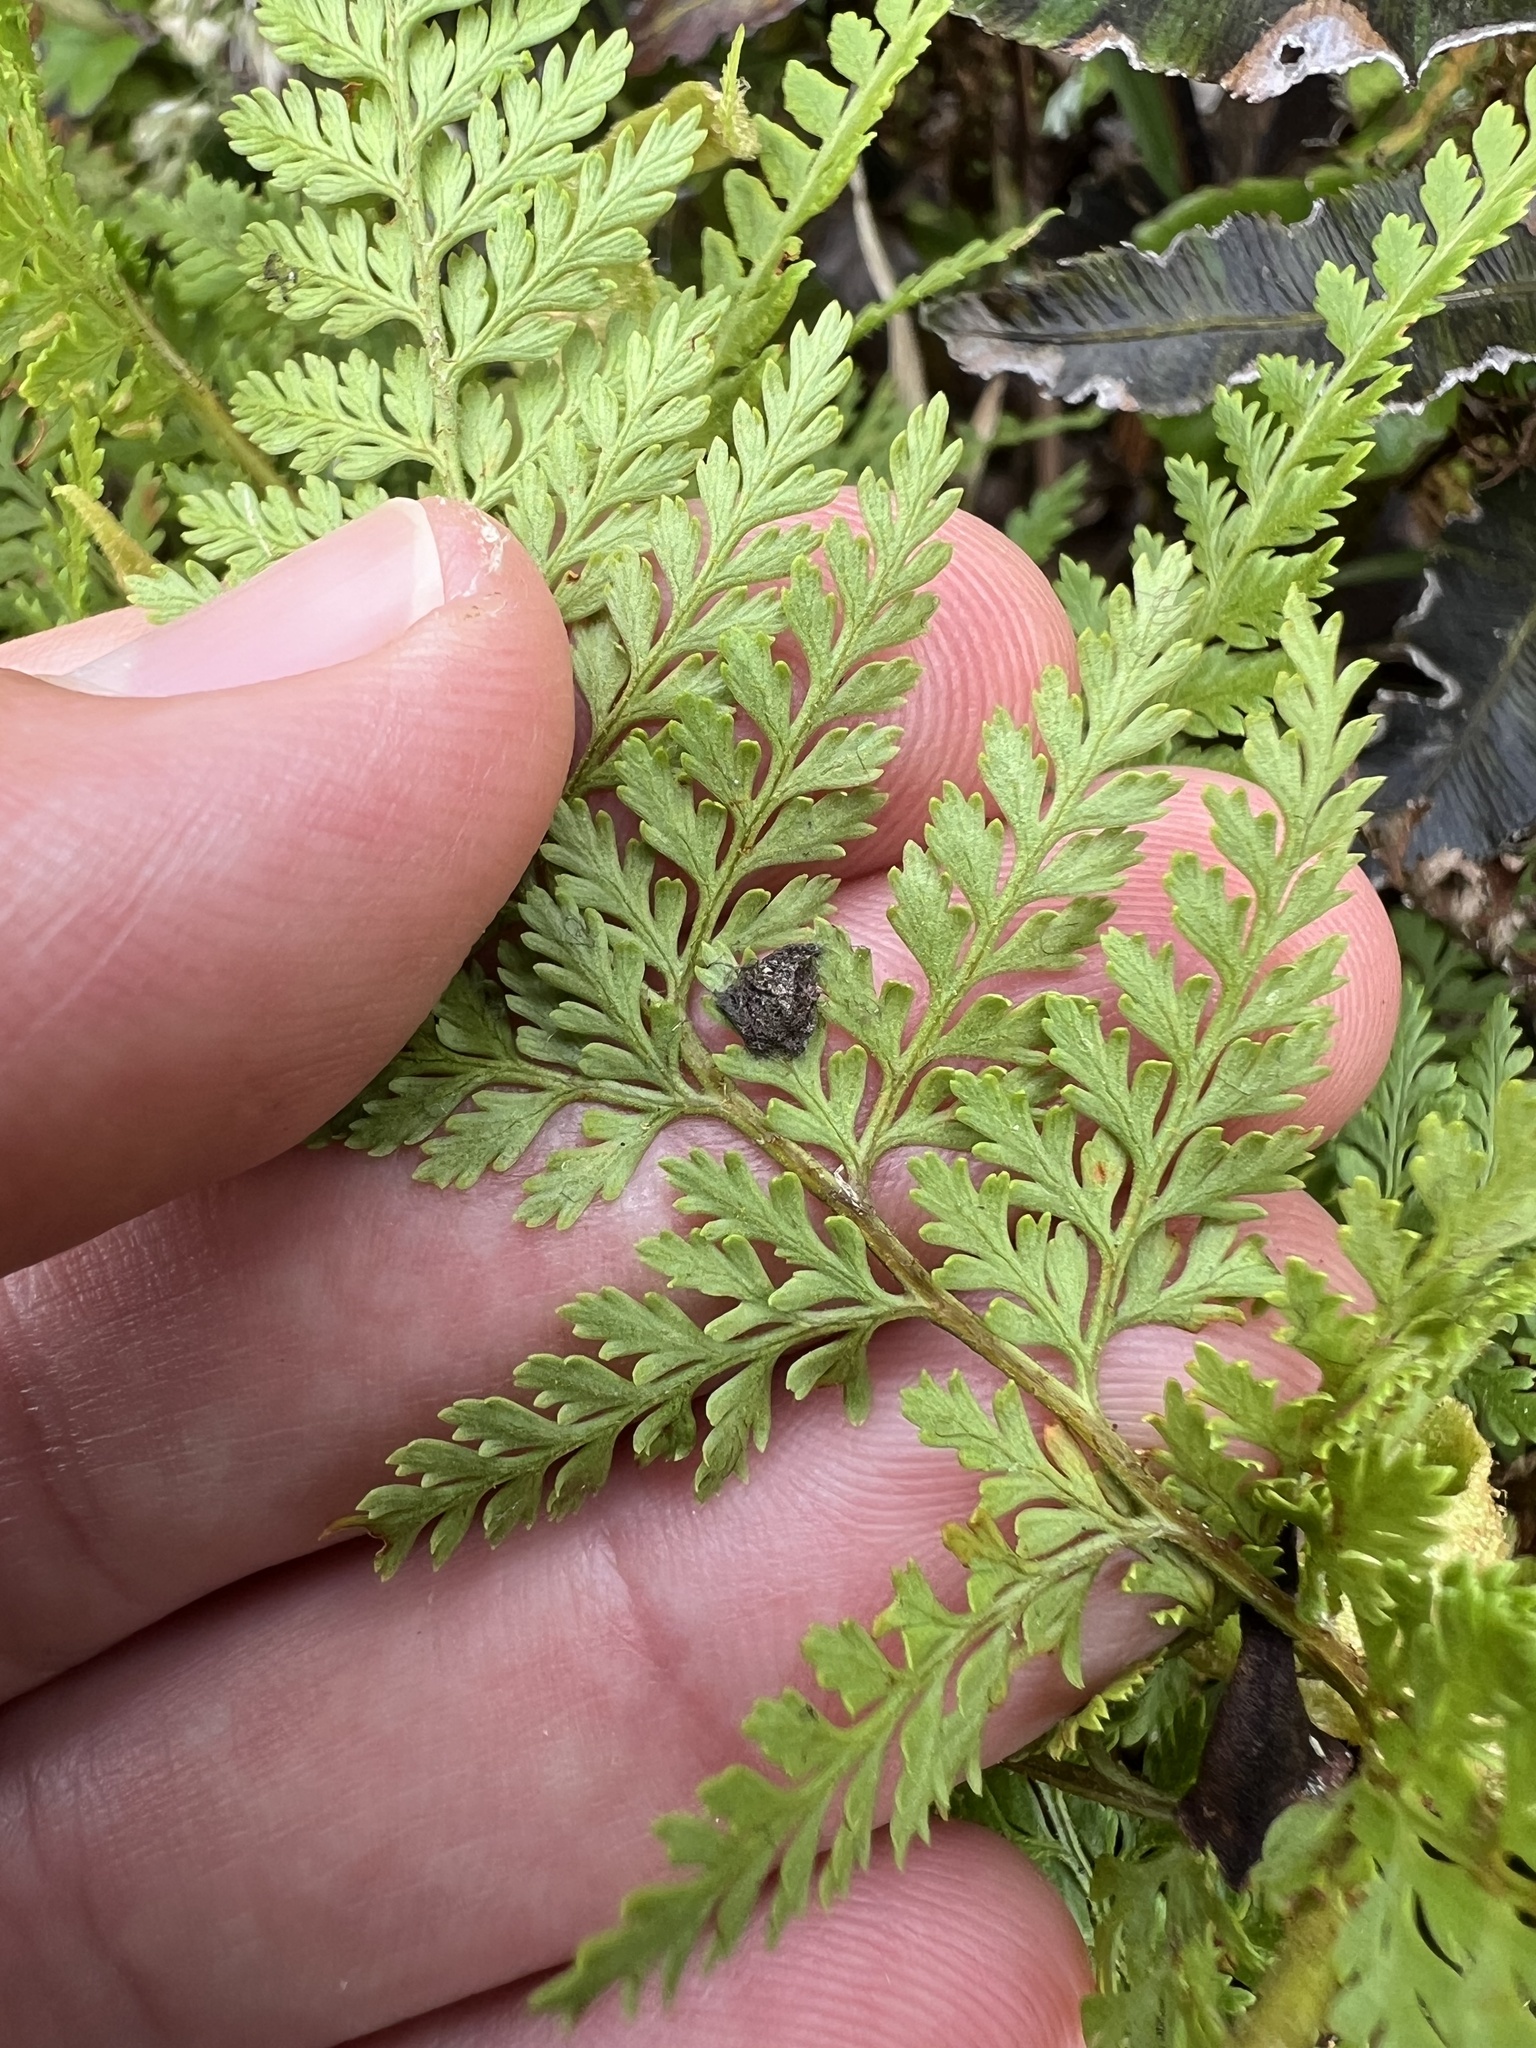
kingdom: Plantae
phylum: Tracheophyta
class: Polypodiopsida
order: Polypodiales
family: Dennstaedtiaceae
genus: Paesia
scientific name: Paesia scaberula
